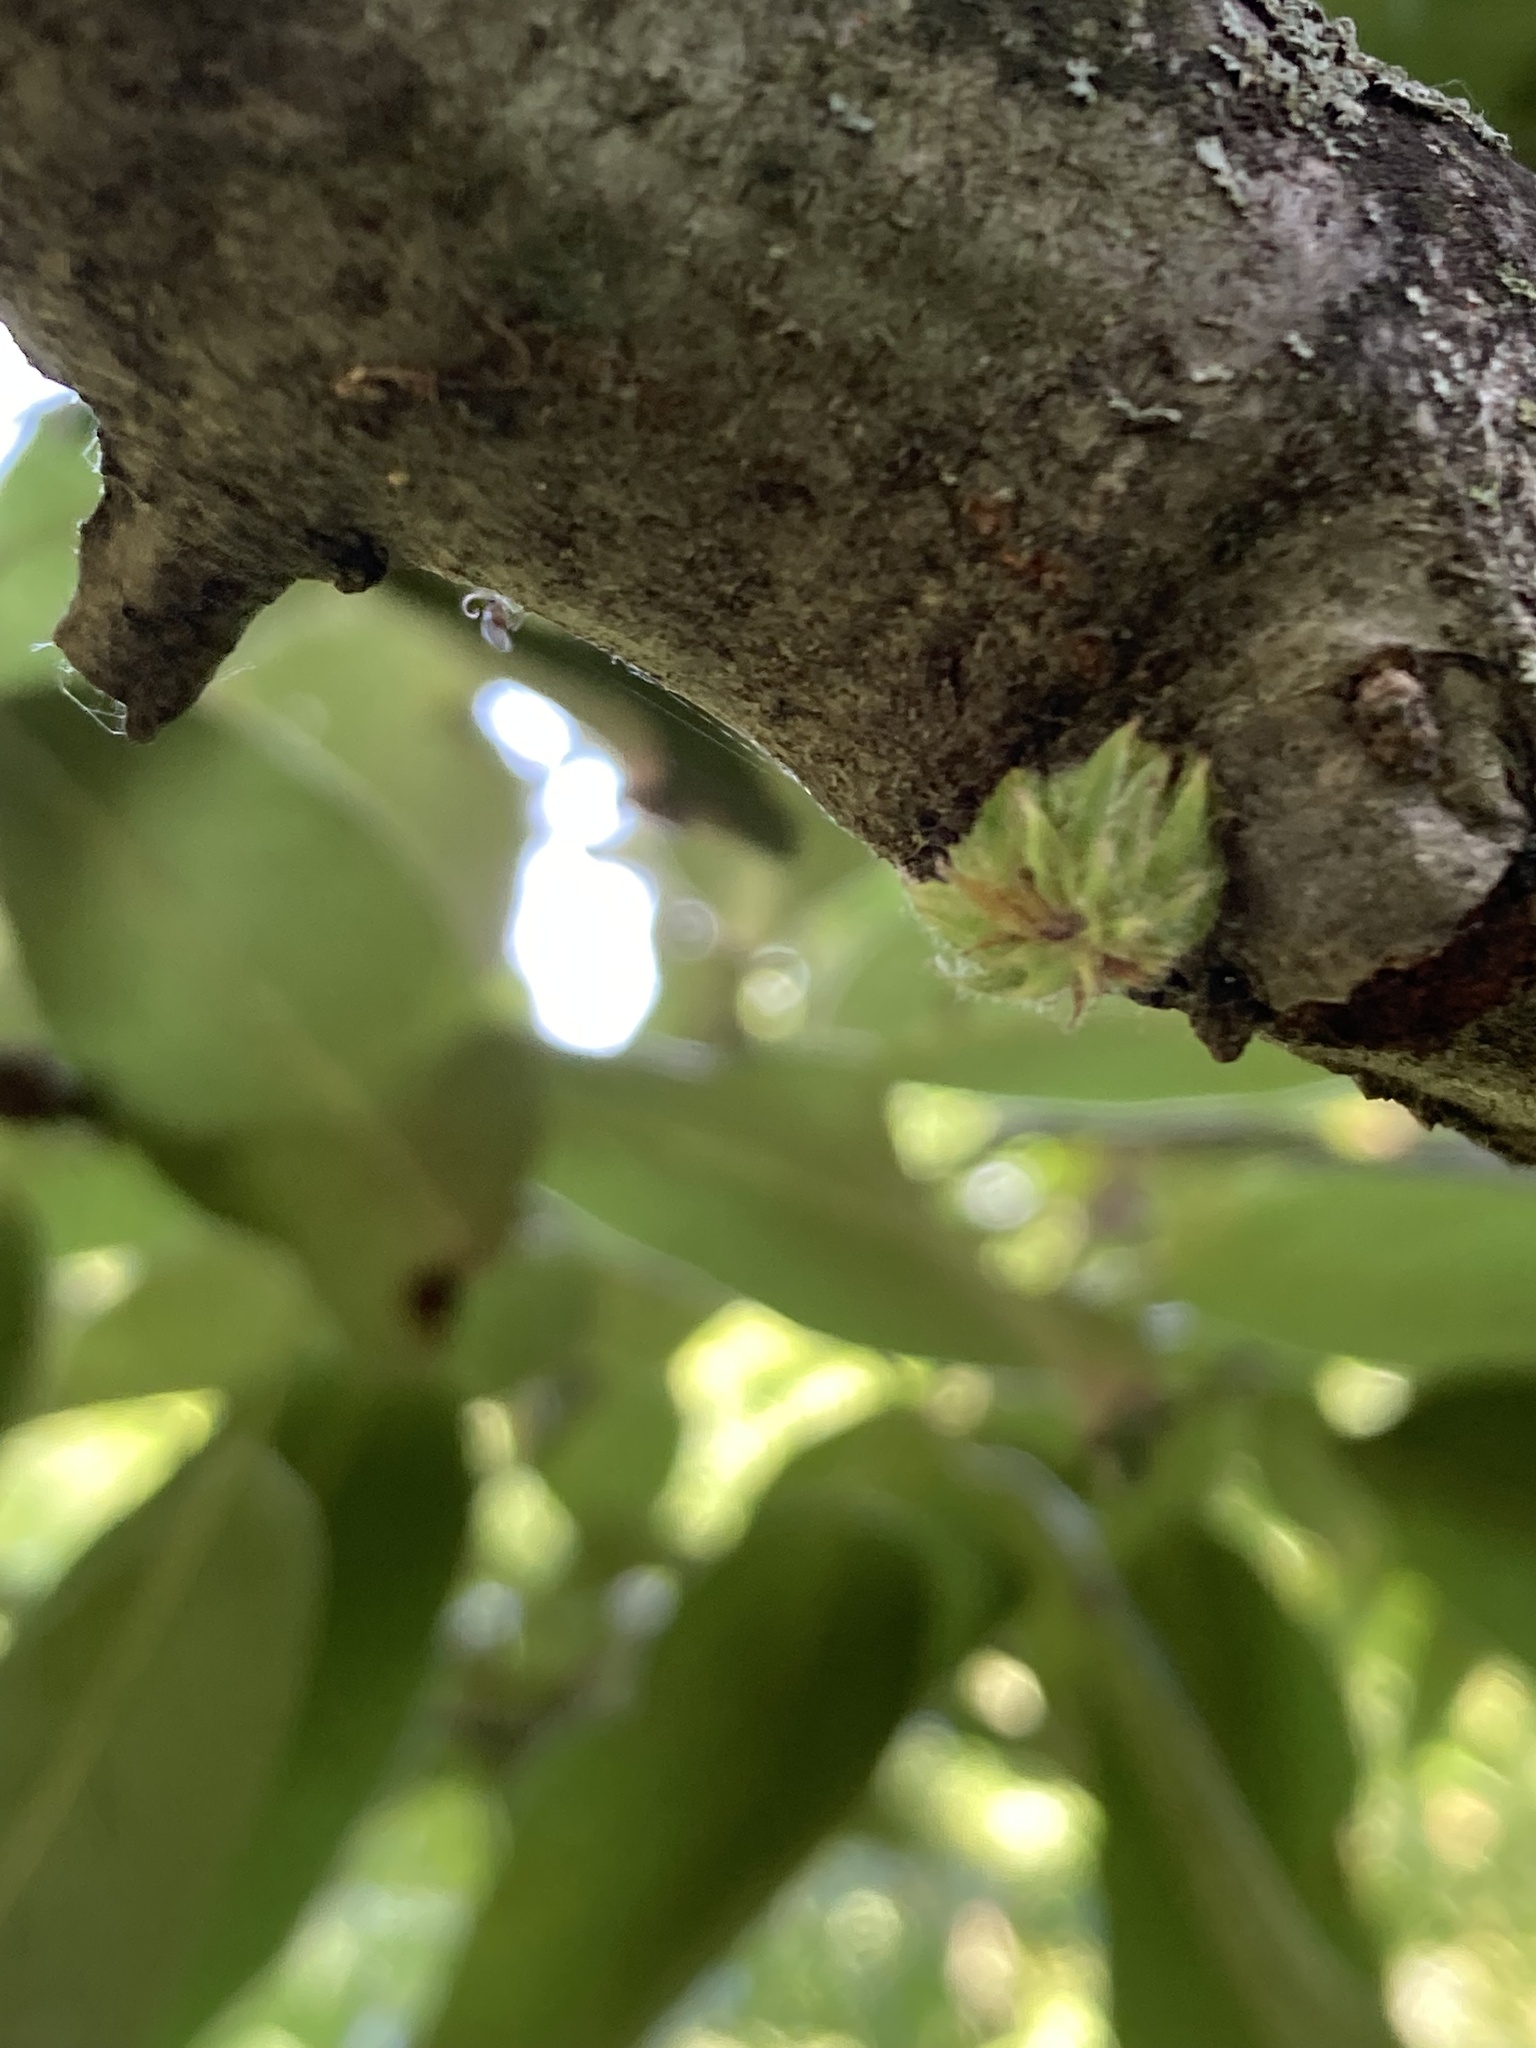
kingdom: Animalia
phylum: Arthropoda
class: Insecta
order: Hymenoptera
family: Cynipidae
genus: Dryocosmus
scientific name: Dryocosmus
